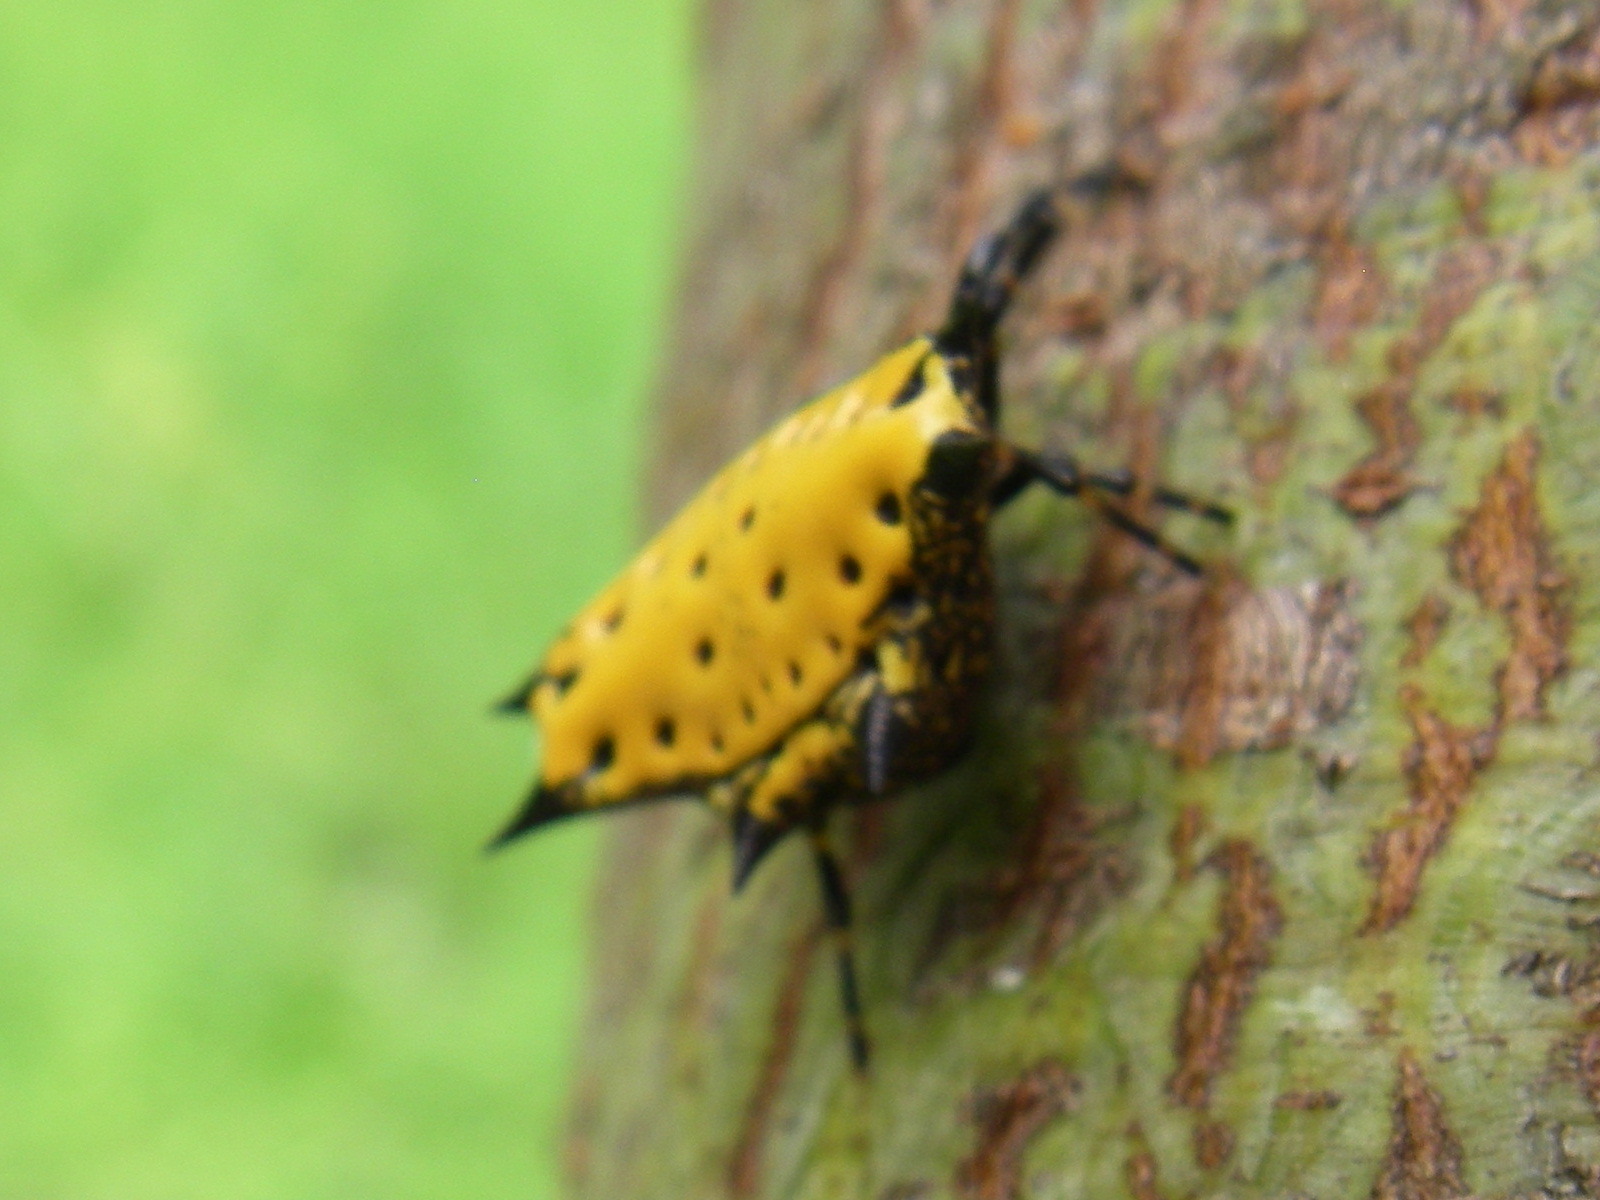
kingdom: Animalia
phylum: Arthropoda
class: Arachnida
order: Araneae
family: Araneidae
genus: Gasteracantha
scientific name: Gasteracantha cancriformis
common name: Orb weavers
